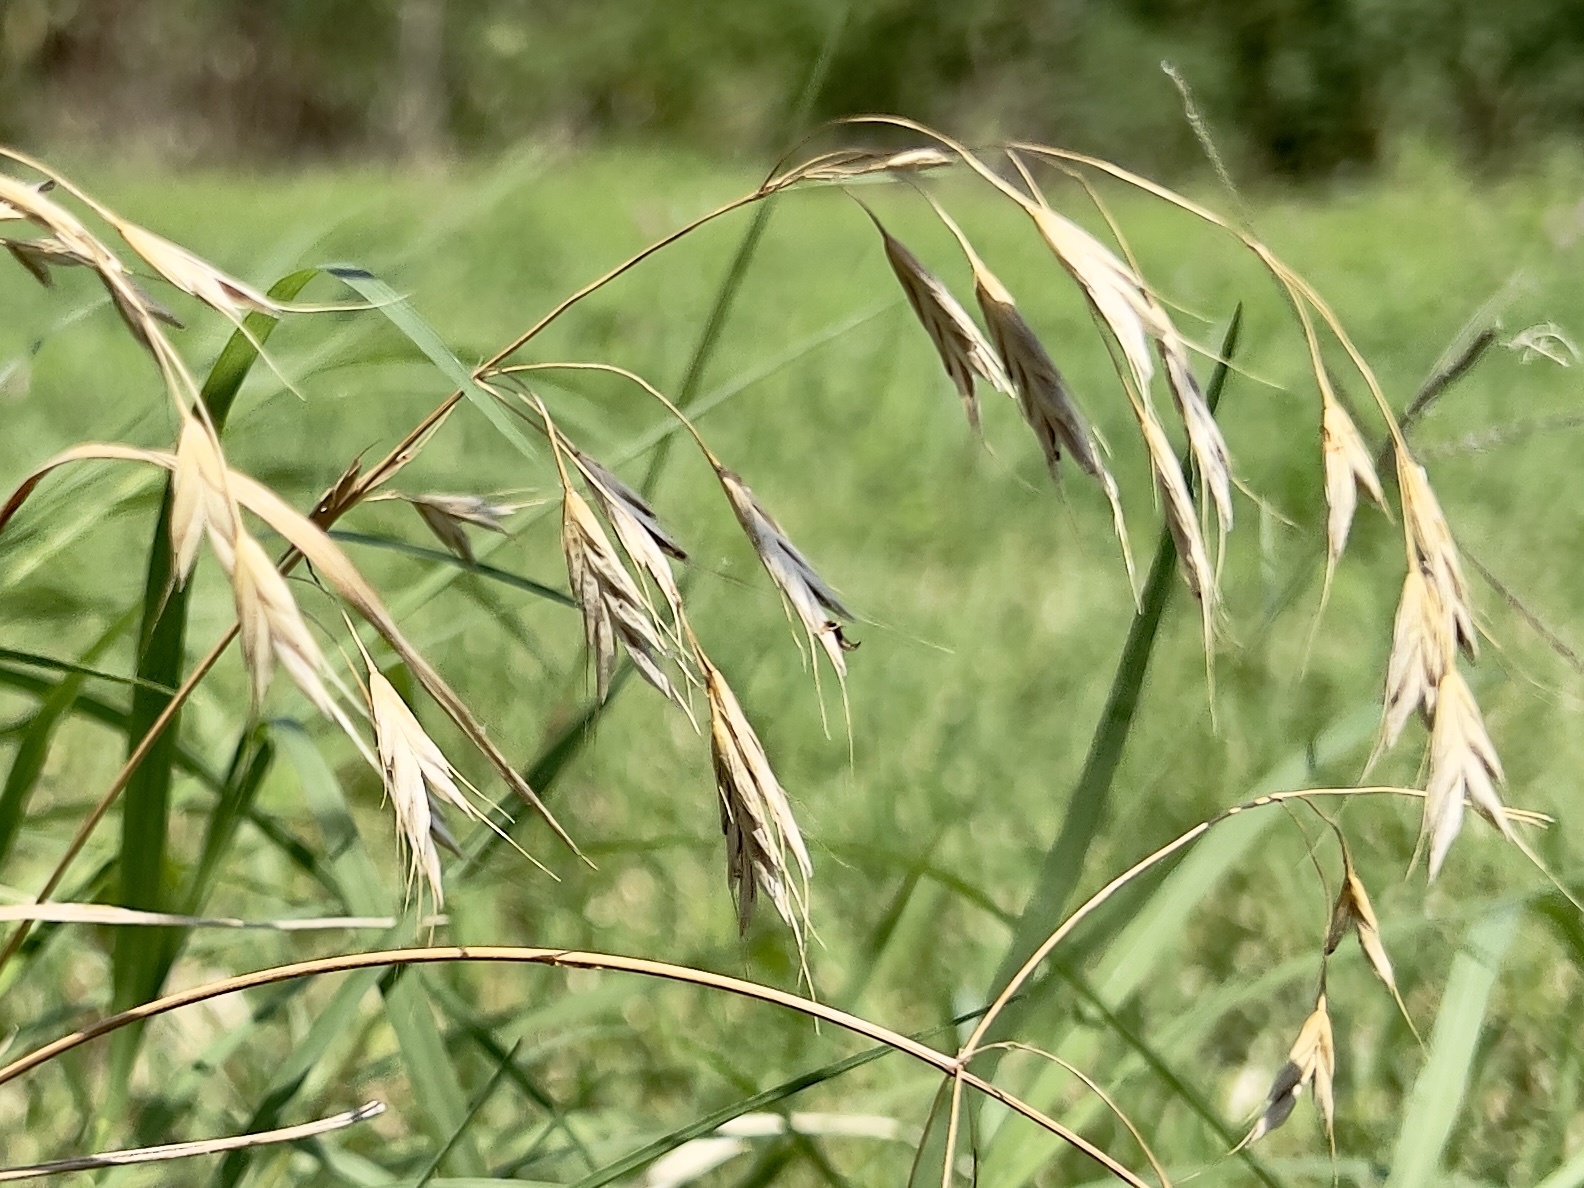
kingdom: Plantae
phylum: Tracheophyta
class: Liliopsida
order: Poales
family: Poaceae
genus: Bromus
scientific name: Bromus japonicus
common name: Japanese brome
